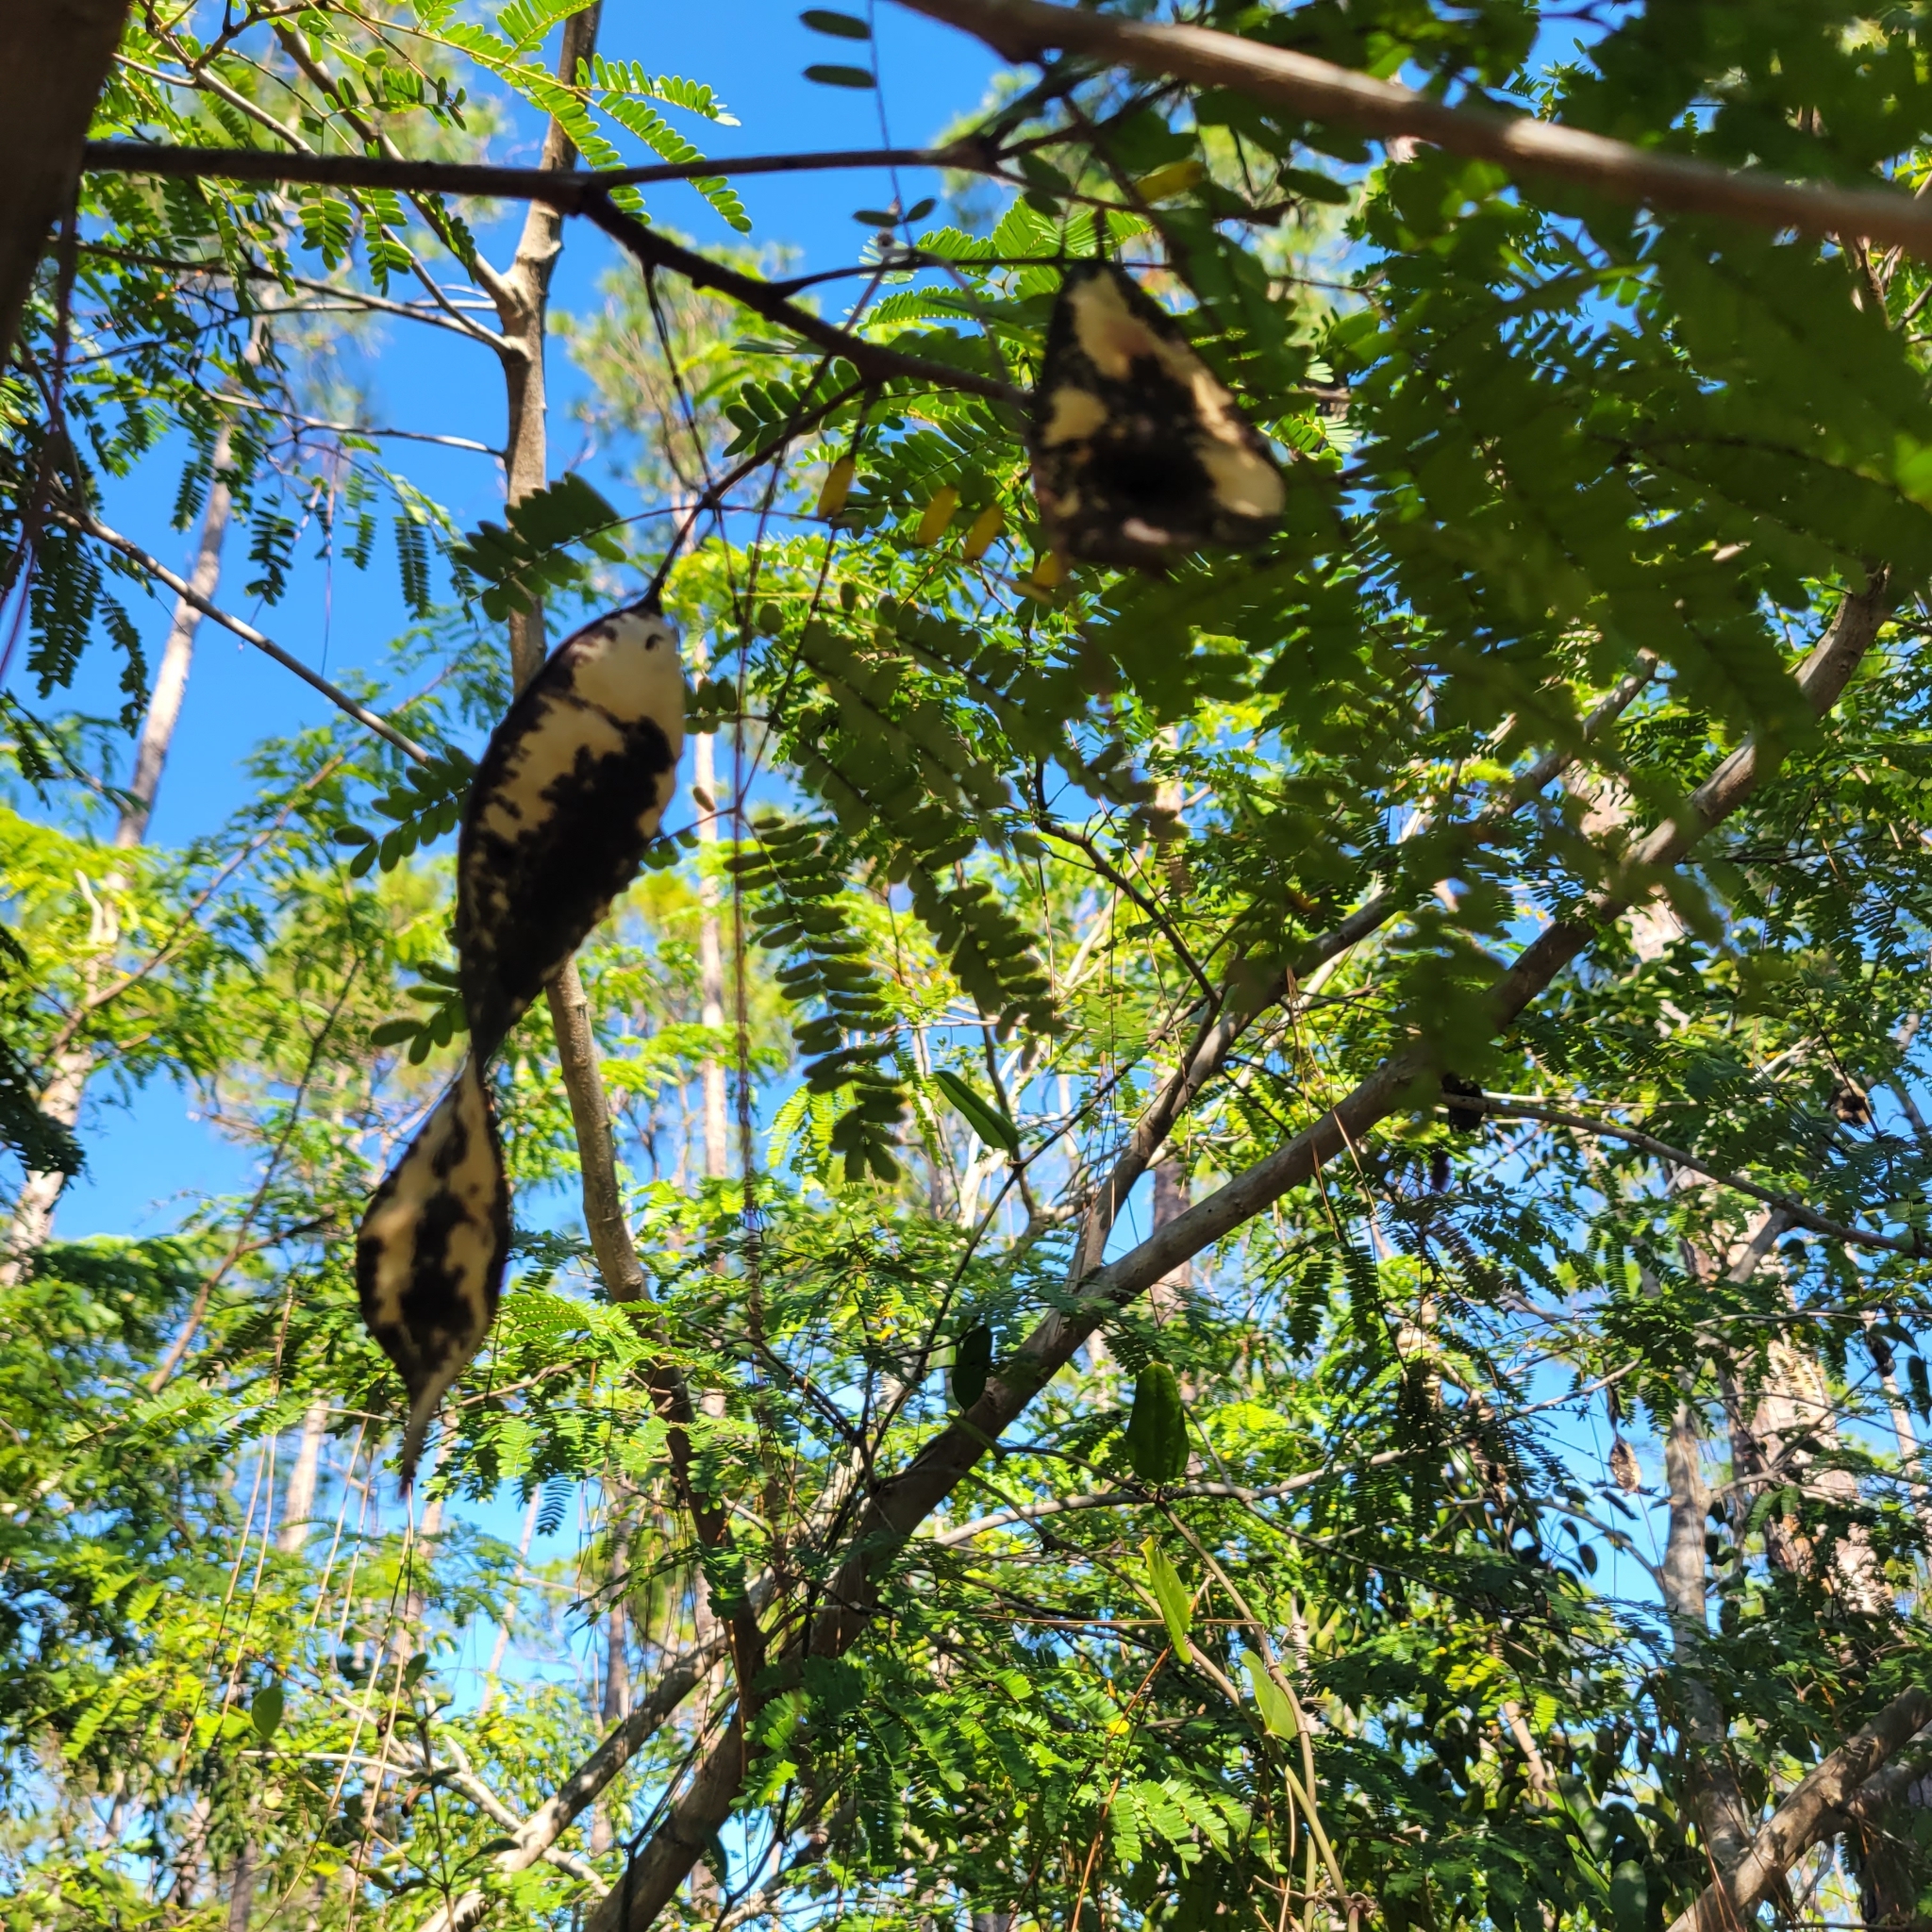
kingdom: Plantae
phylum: Tracheophyta
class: Magnoliopsida
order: Fabales
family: Fabaceae
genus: Lysiloma
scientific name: Lysiloma latisiliquum
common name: Wild tamarind
